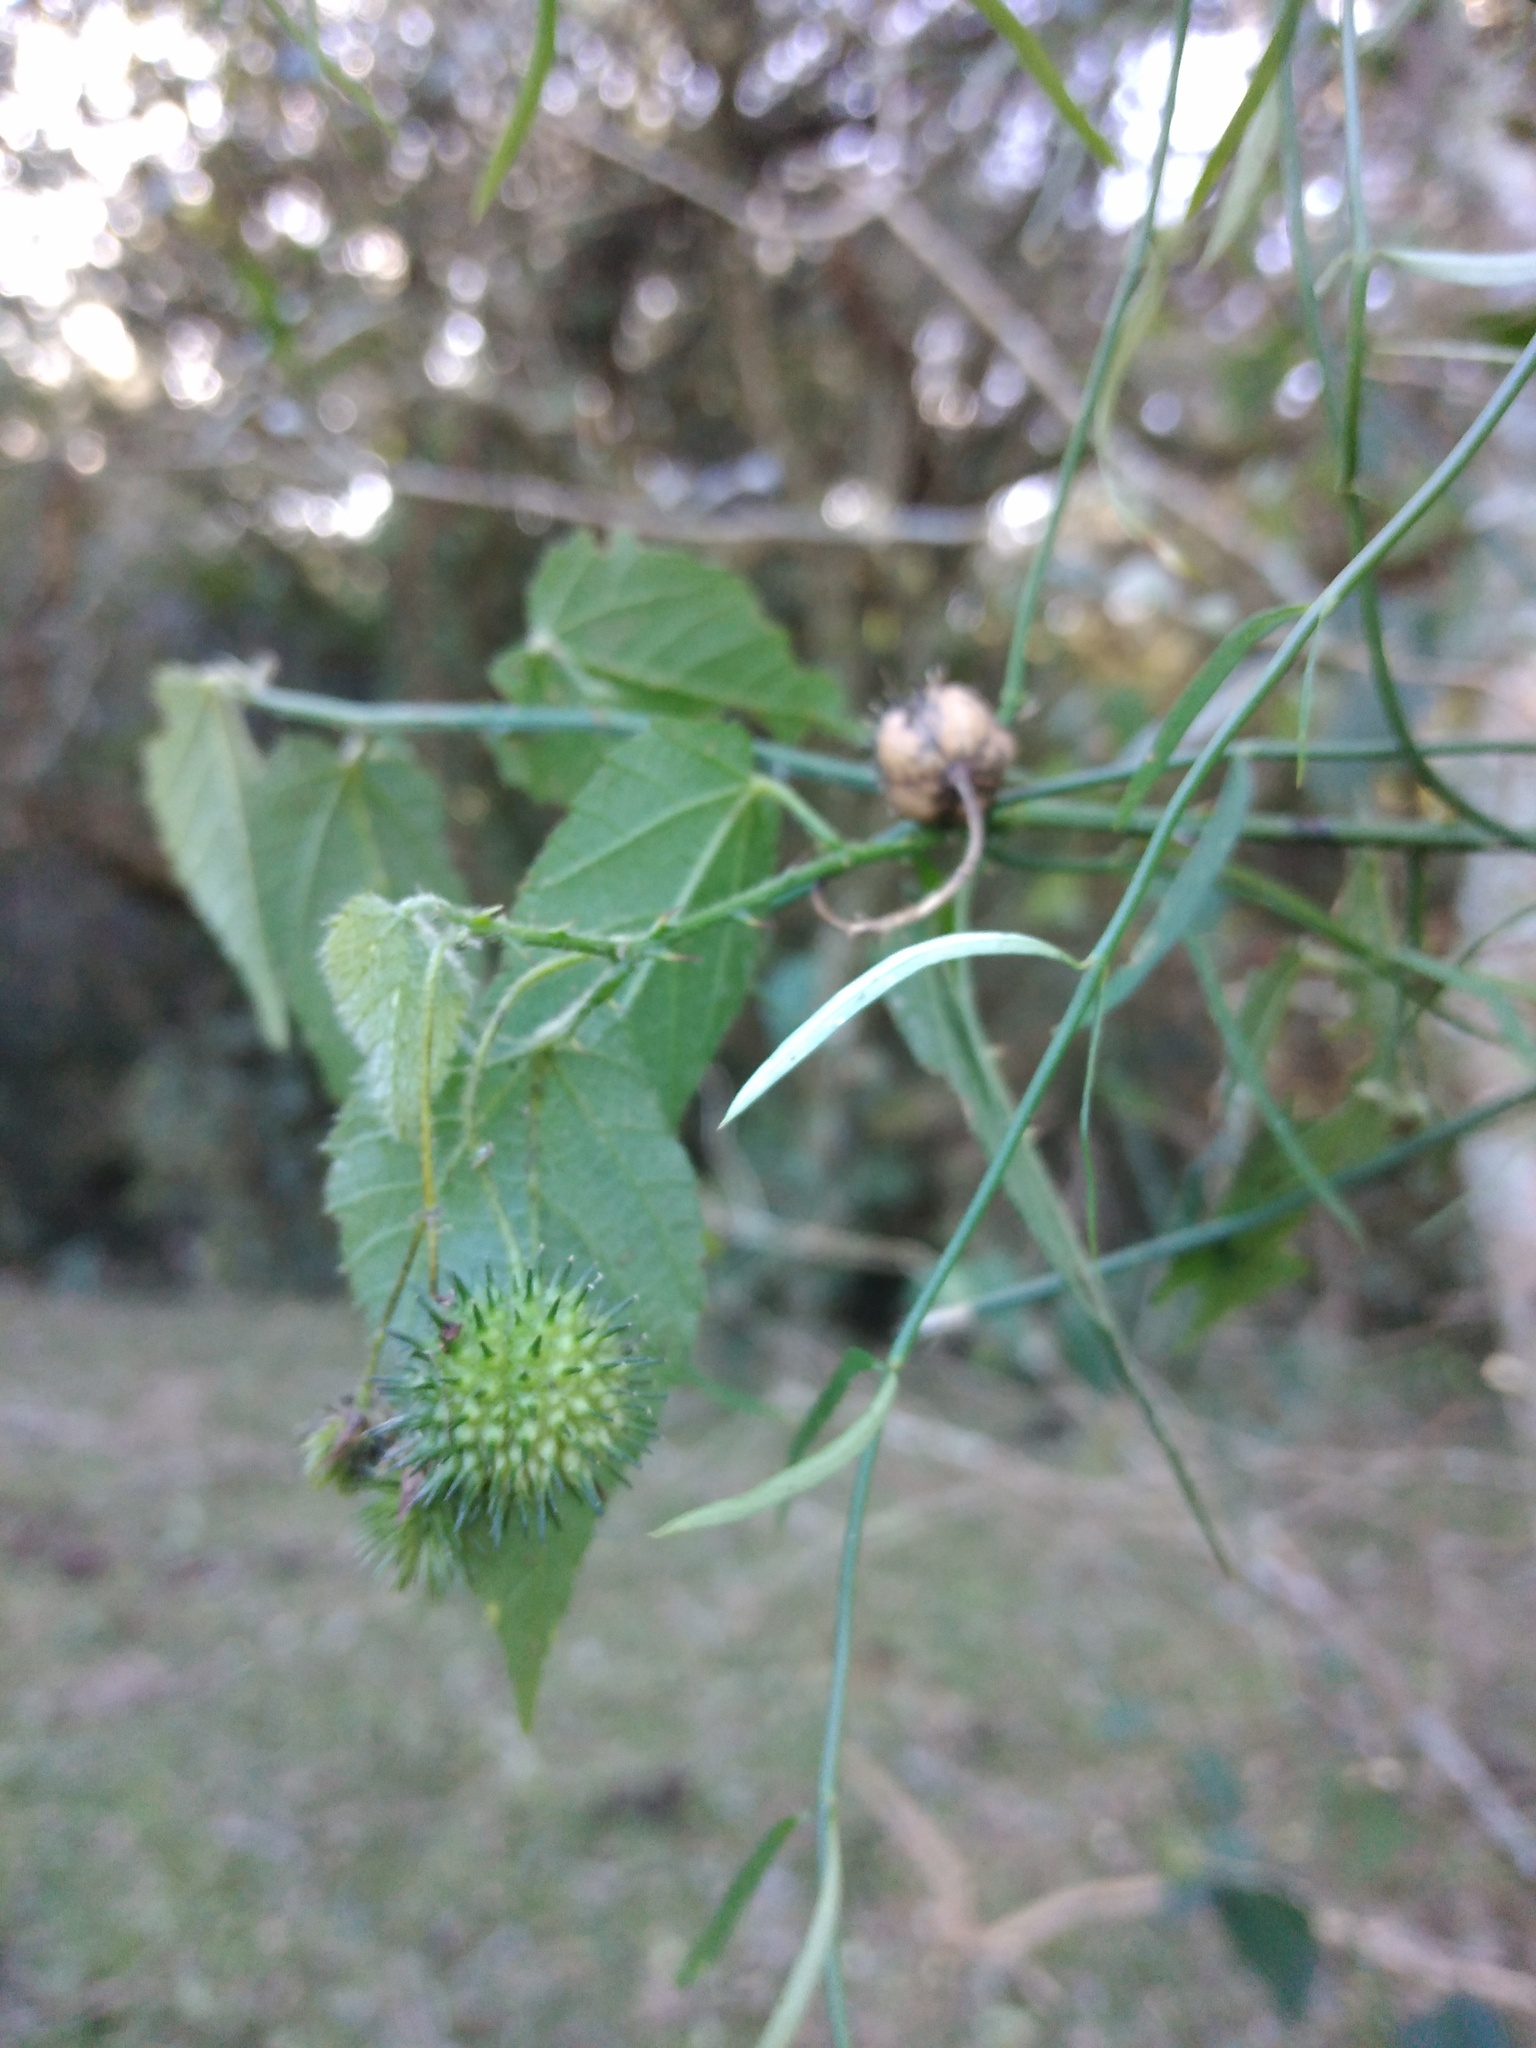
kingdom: Plantae
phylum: Tracheophyta
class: Magnoliopsida
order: Malvales
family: Malvaceae
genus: Byttneria
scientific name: Byttneria urticifolia
